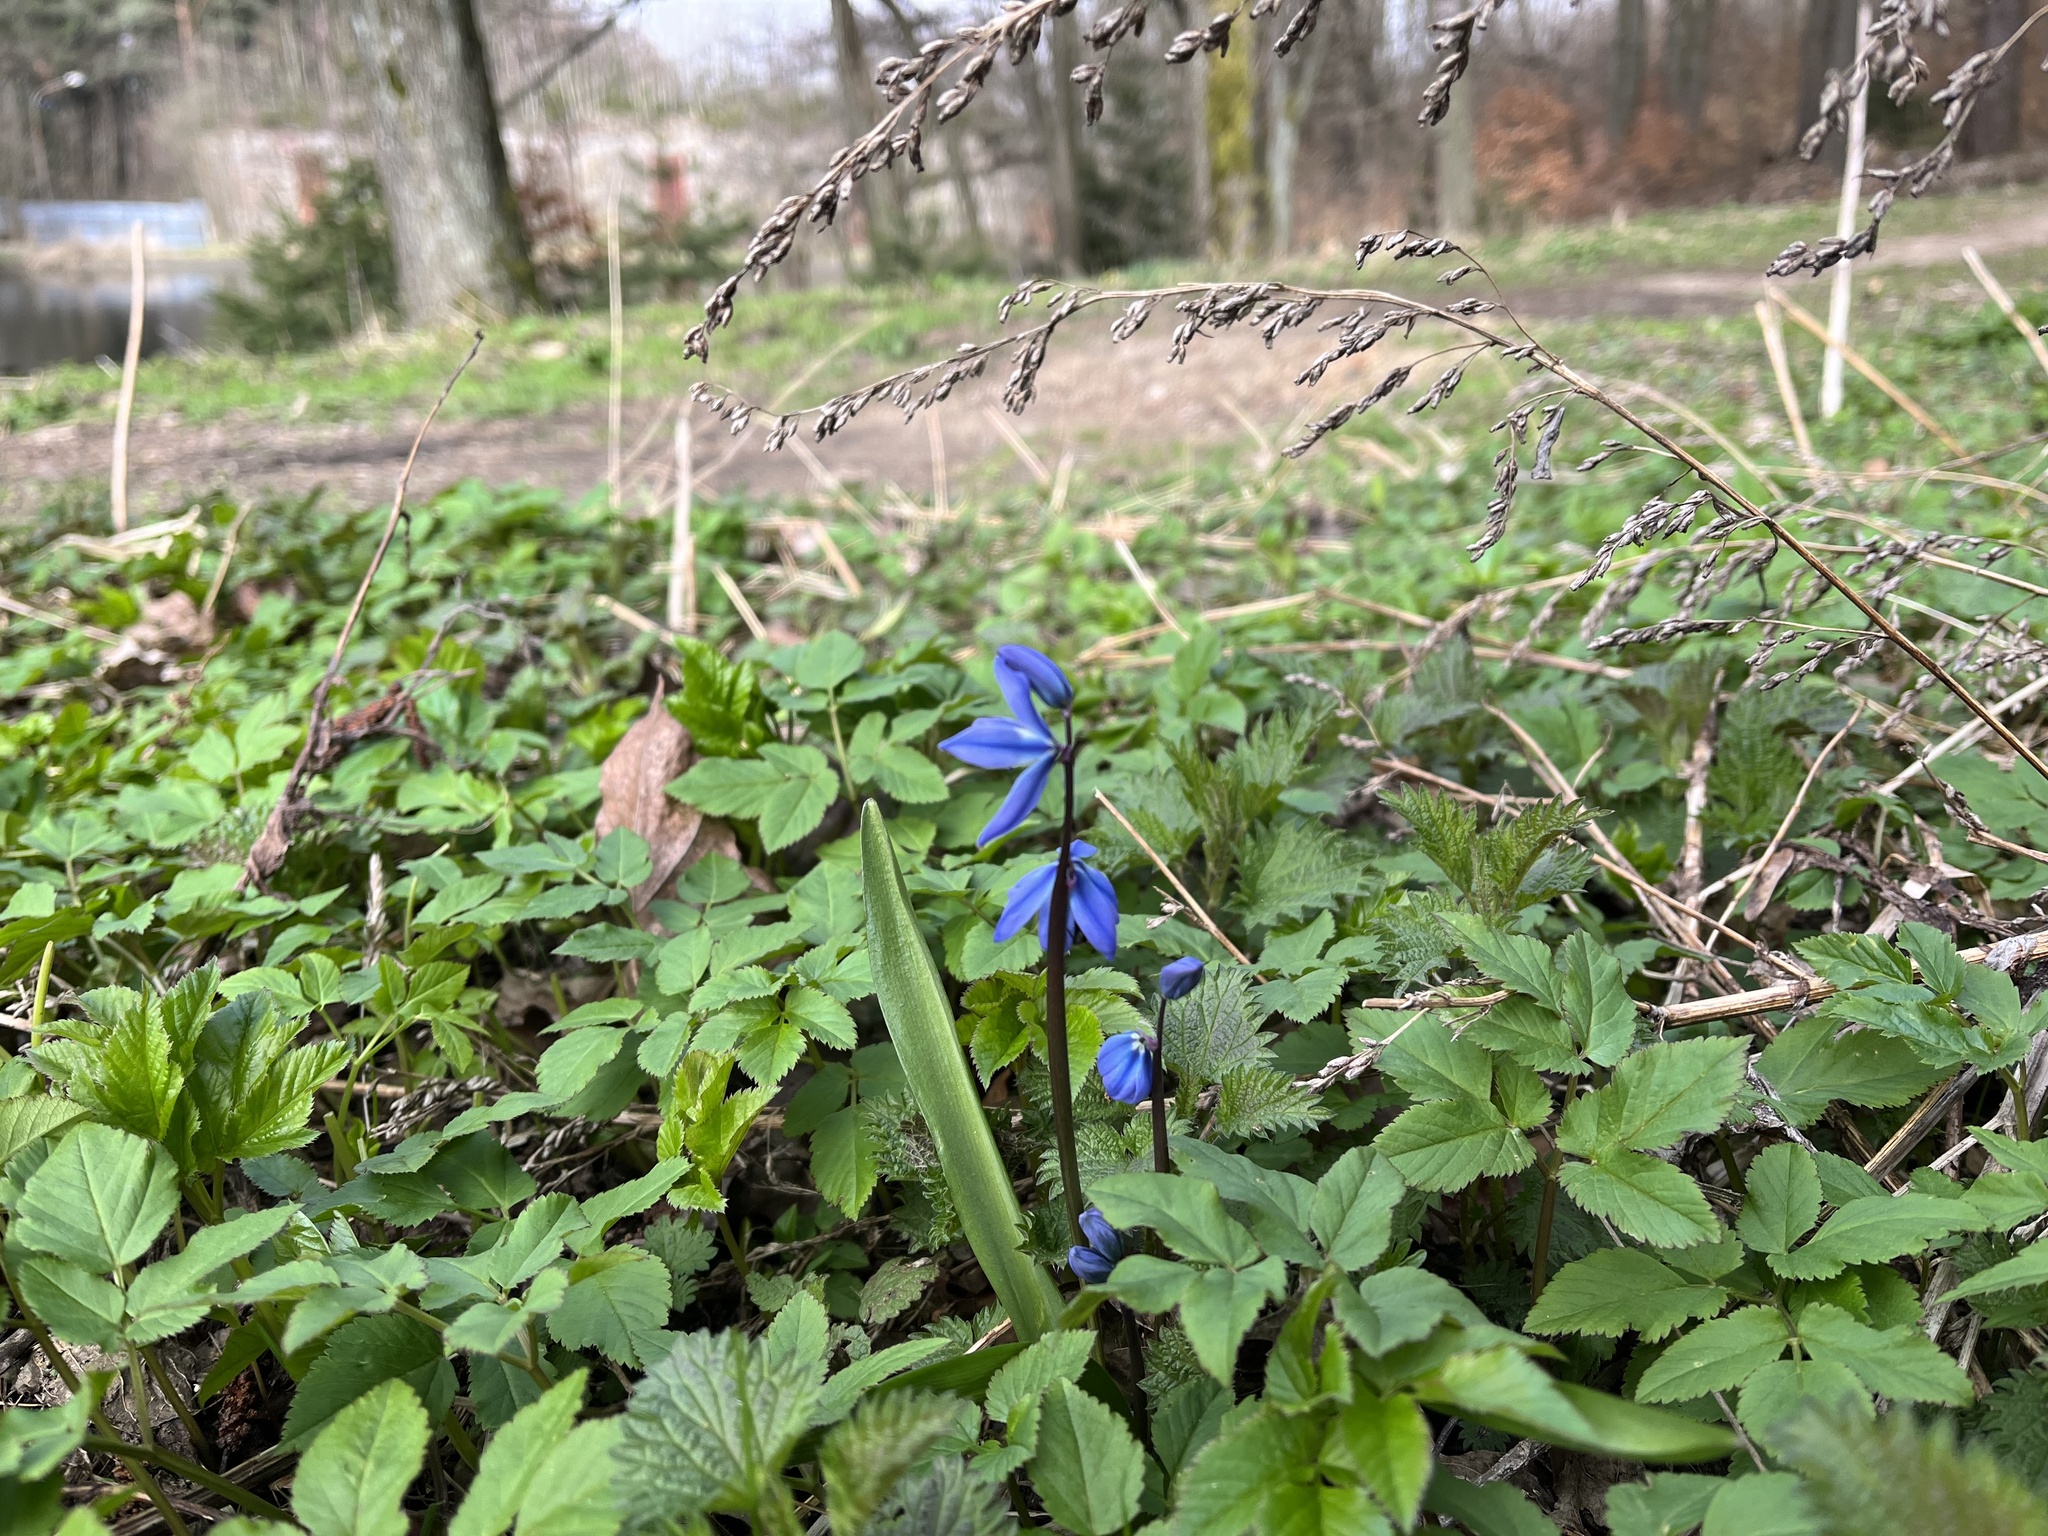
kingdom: Plantae
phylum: Tracheophyta
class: Liliopsida
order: Asparagales
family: Asparagaceae
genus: Scilla
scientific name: Scilla siberica
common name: Siberian squill
